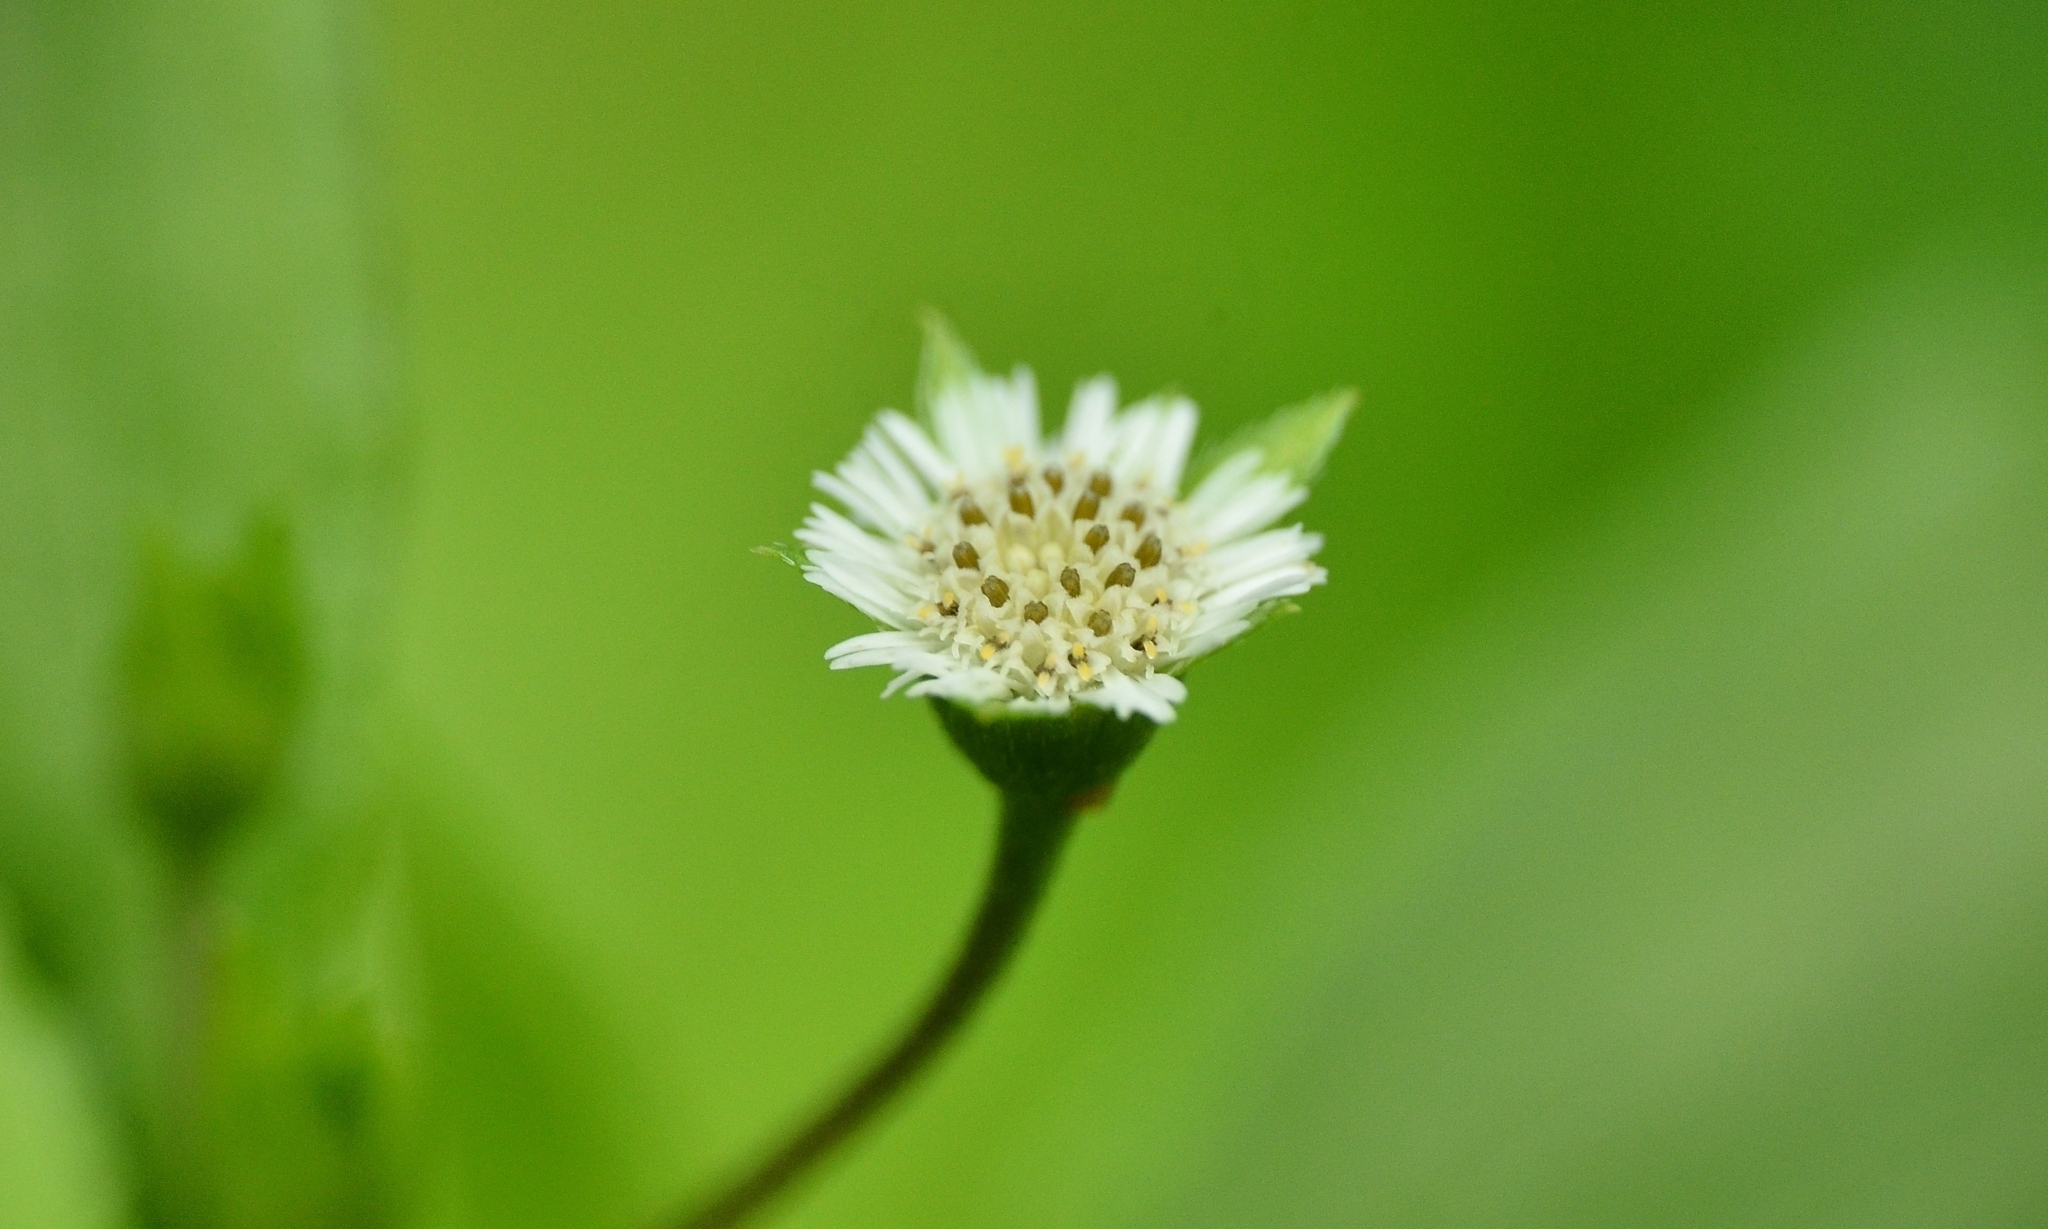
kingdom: Plantae
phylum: Tracheophyta
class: Magnoliopsida
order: Asterales
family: Asteraceae
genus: Eclipta
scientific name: Eclipta prostrata
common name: False daisy
